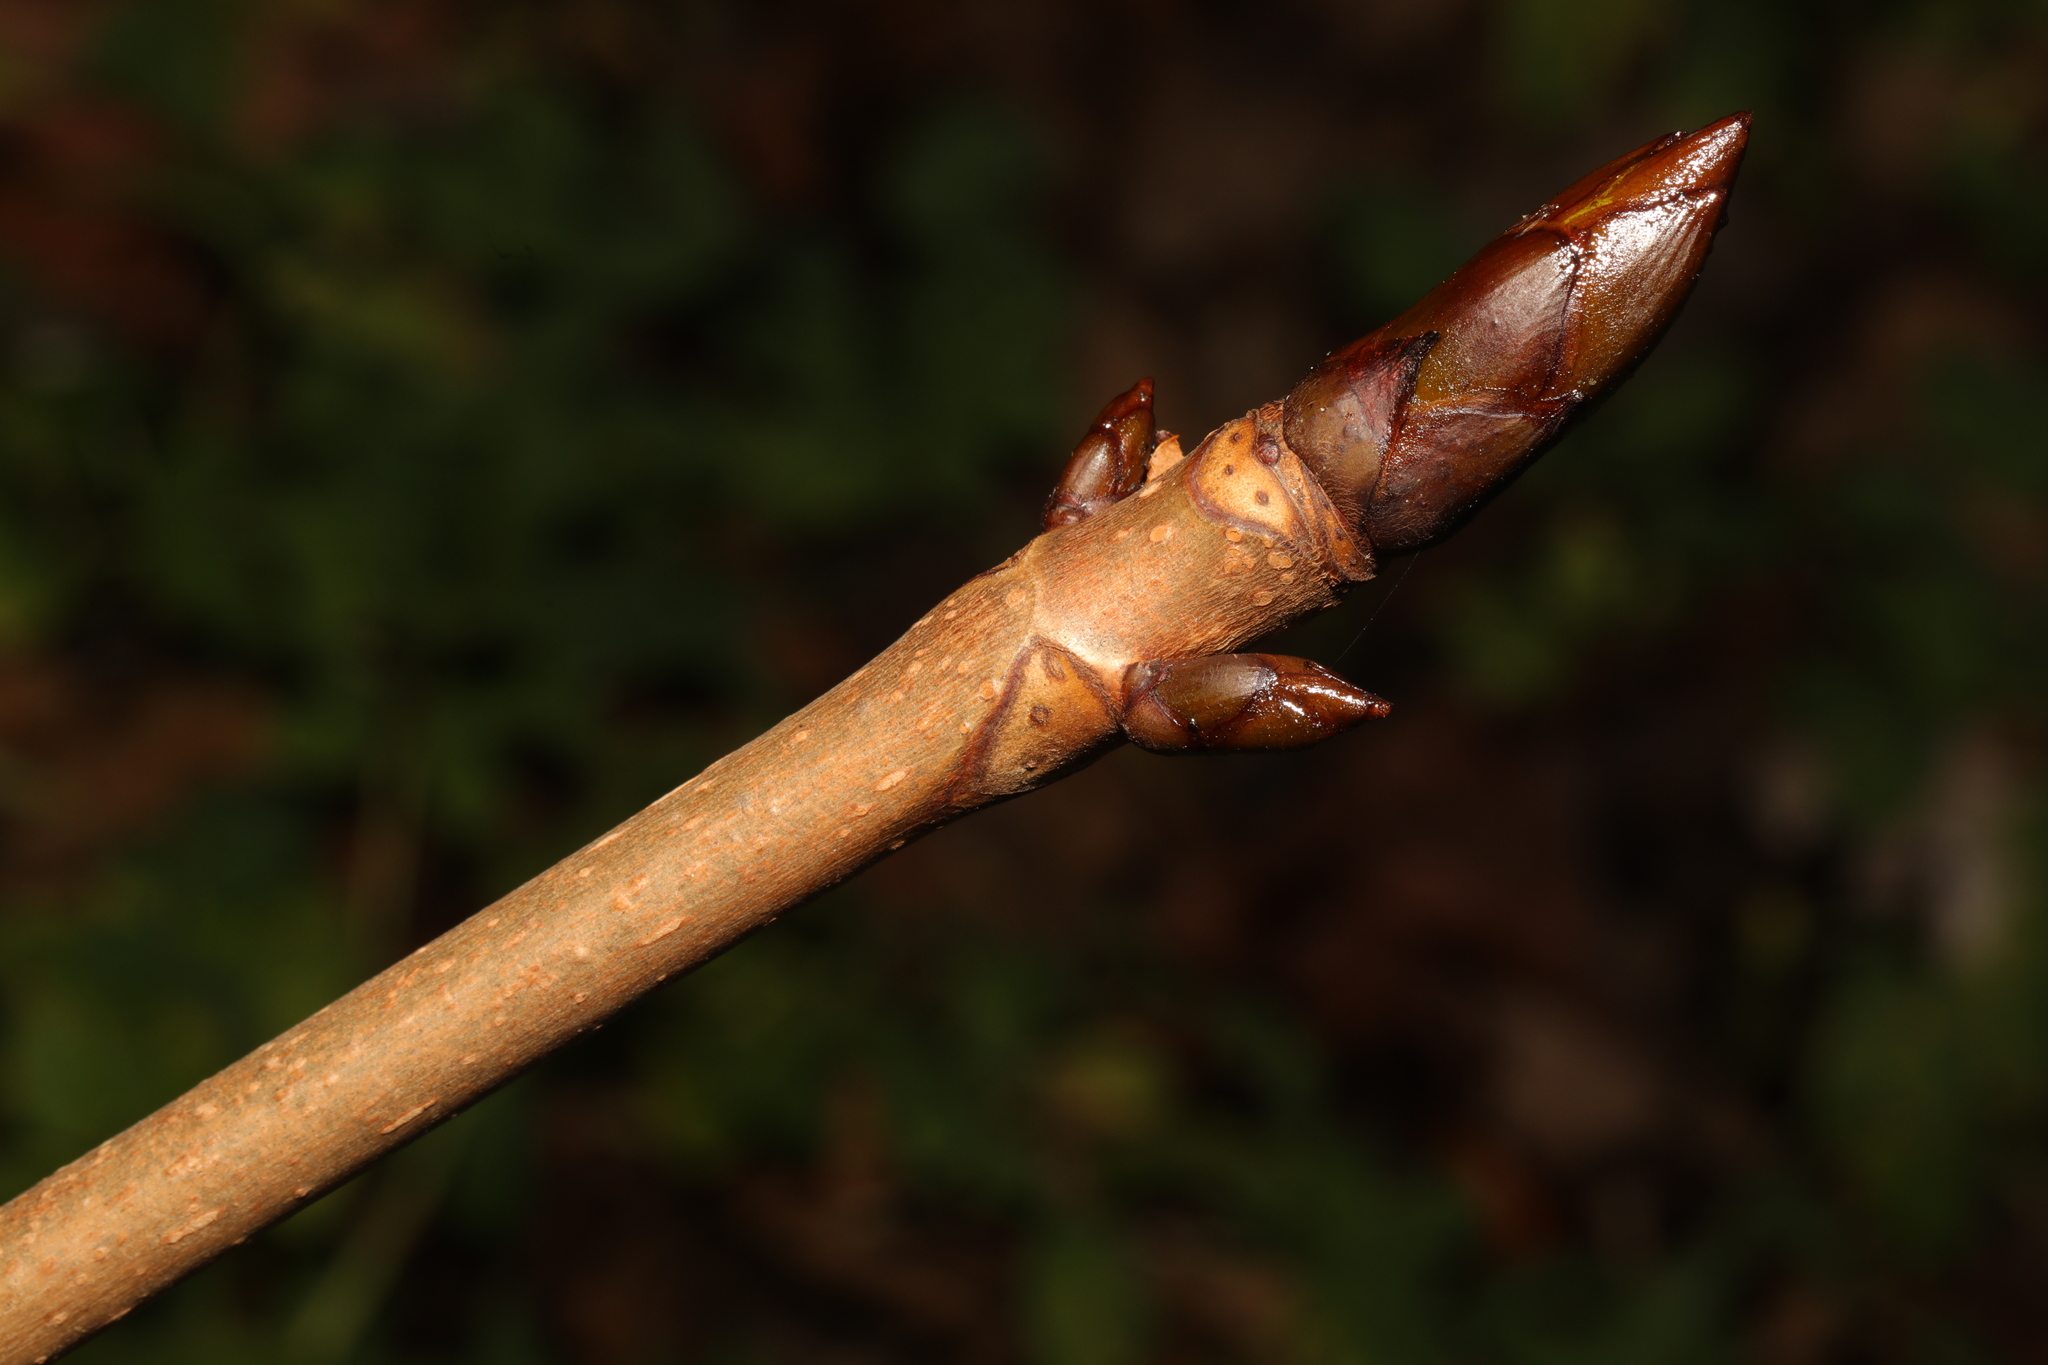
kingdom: Plantae
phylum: Tracheophyta
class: Magnoliopsida
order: Sapindales
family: Sapindaceae
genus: Aesculus
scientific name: Aesculus hippocastanum
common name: Horse-chestnut
